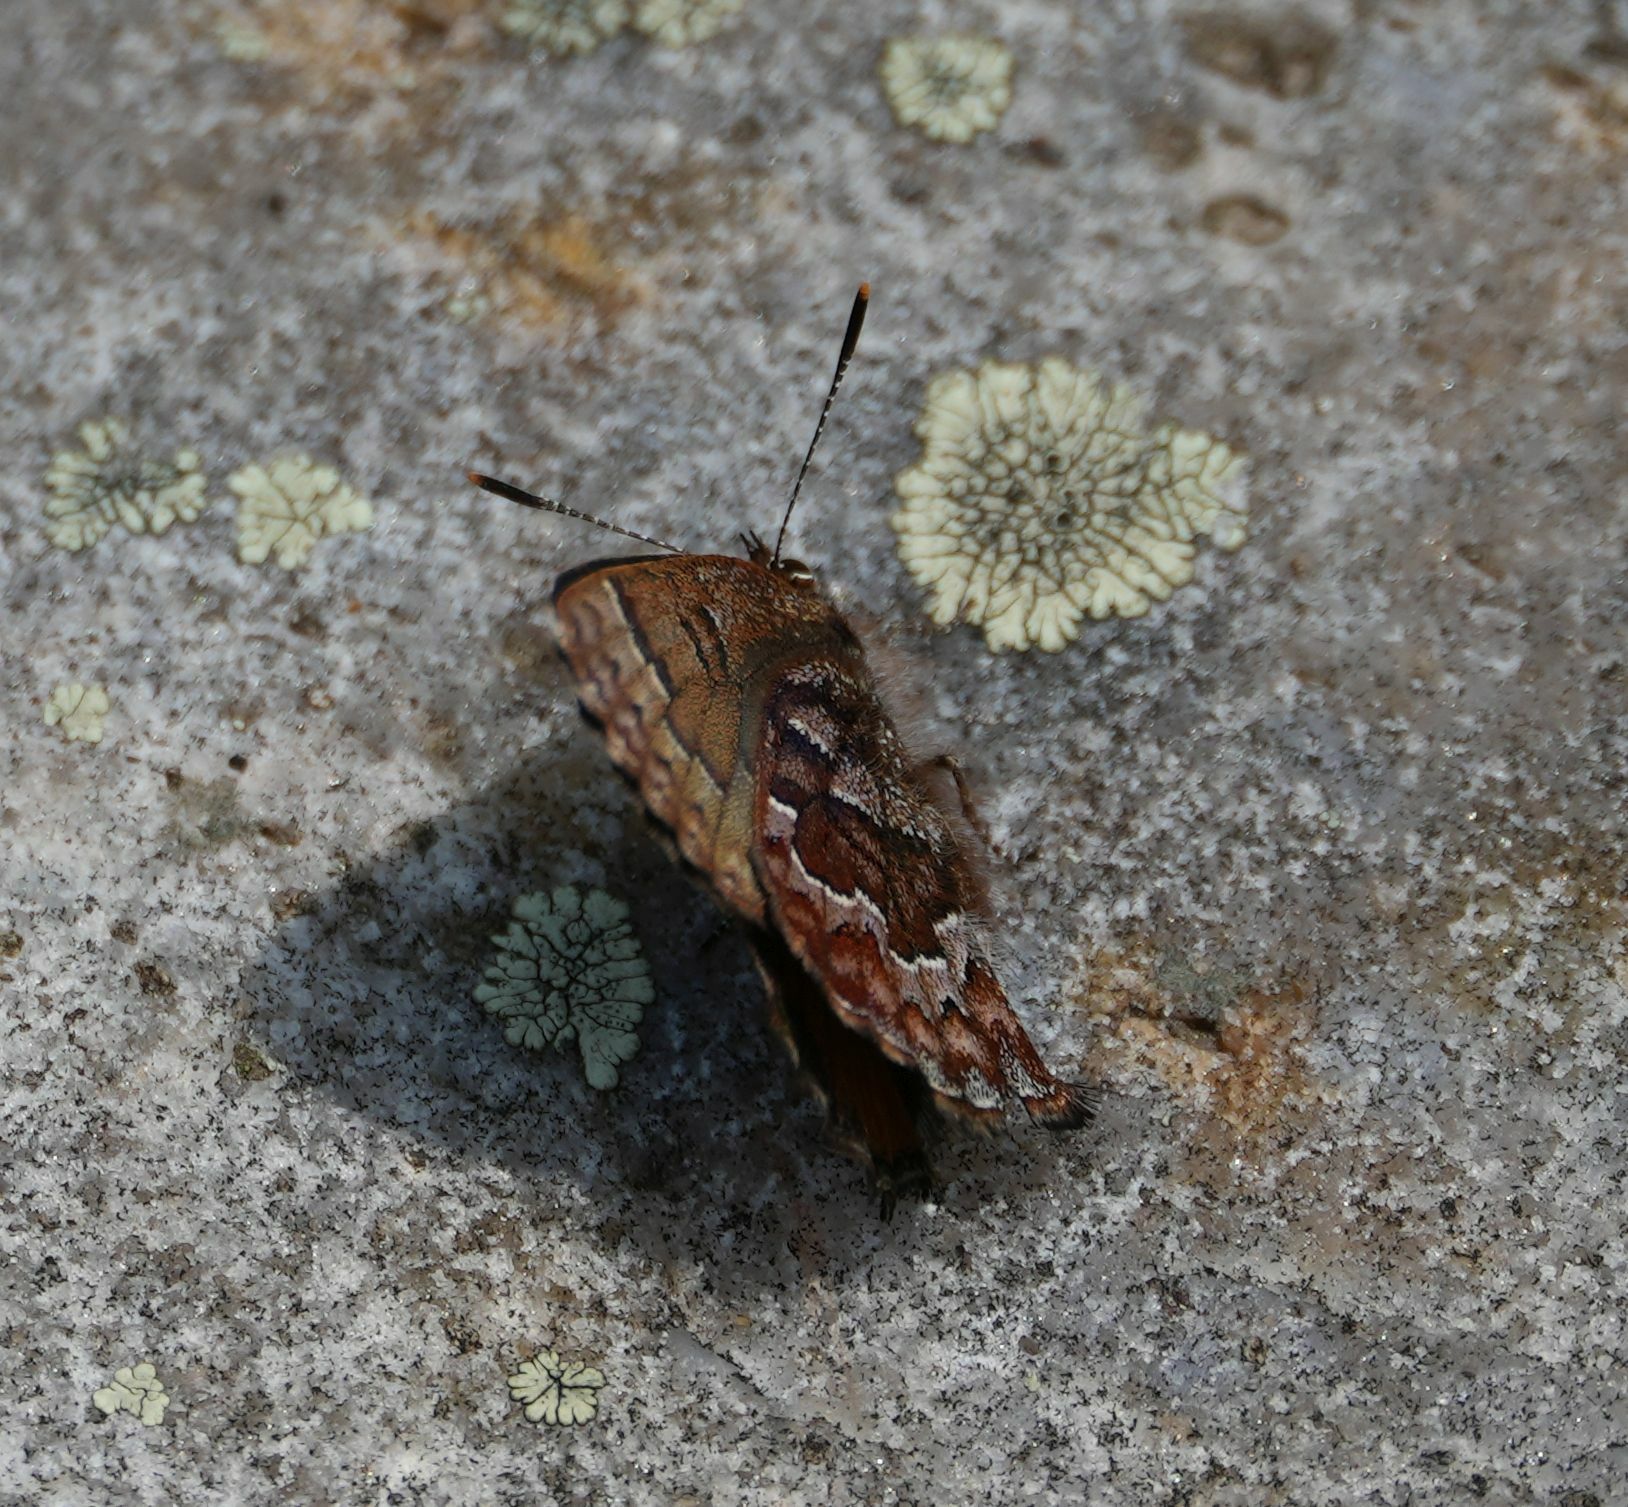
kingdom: Animalia
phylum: Arthropoda
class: Insecta
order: Lepidoptera
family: Lycaenidae
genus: Incisalia
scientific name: Incisalia niphon
